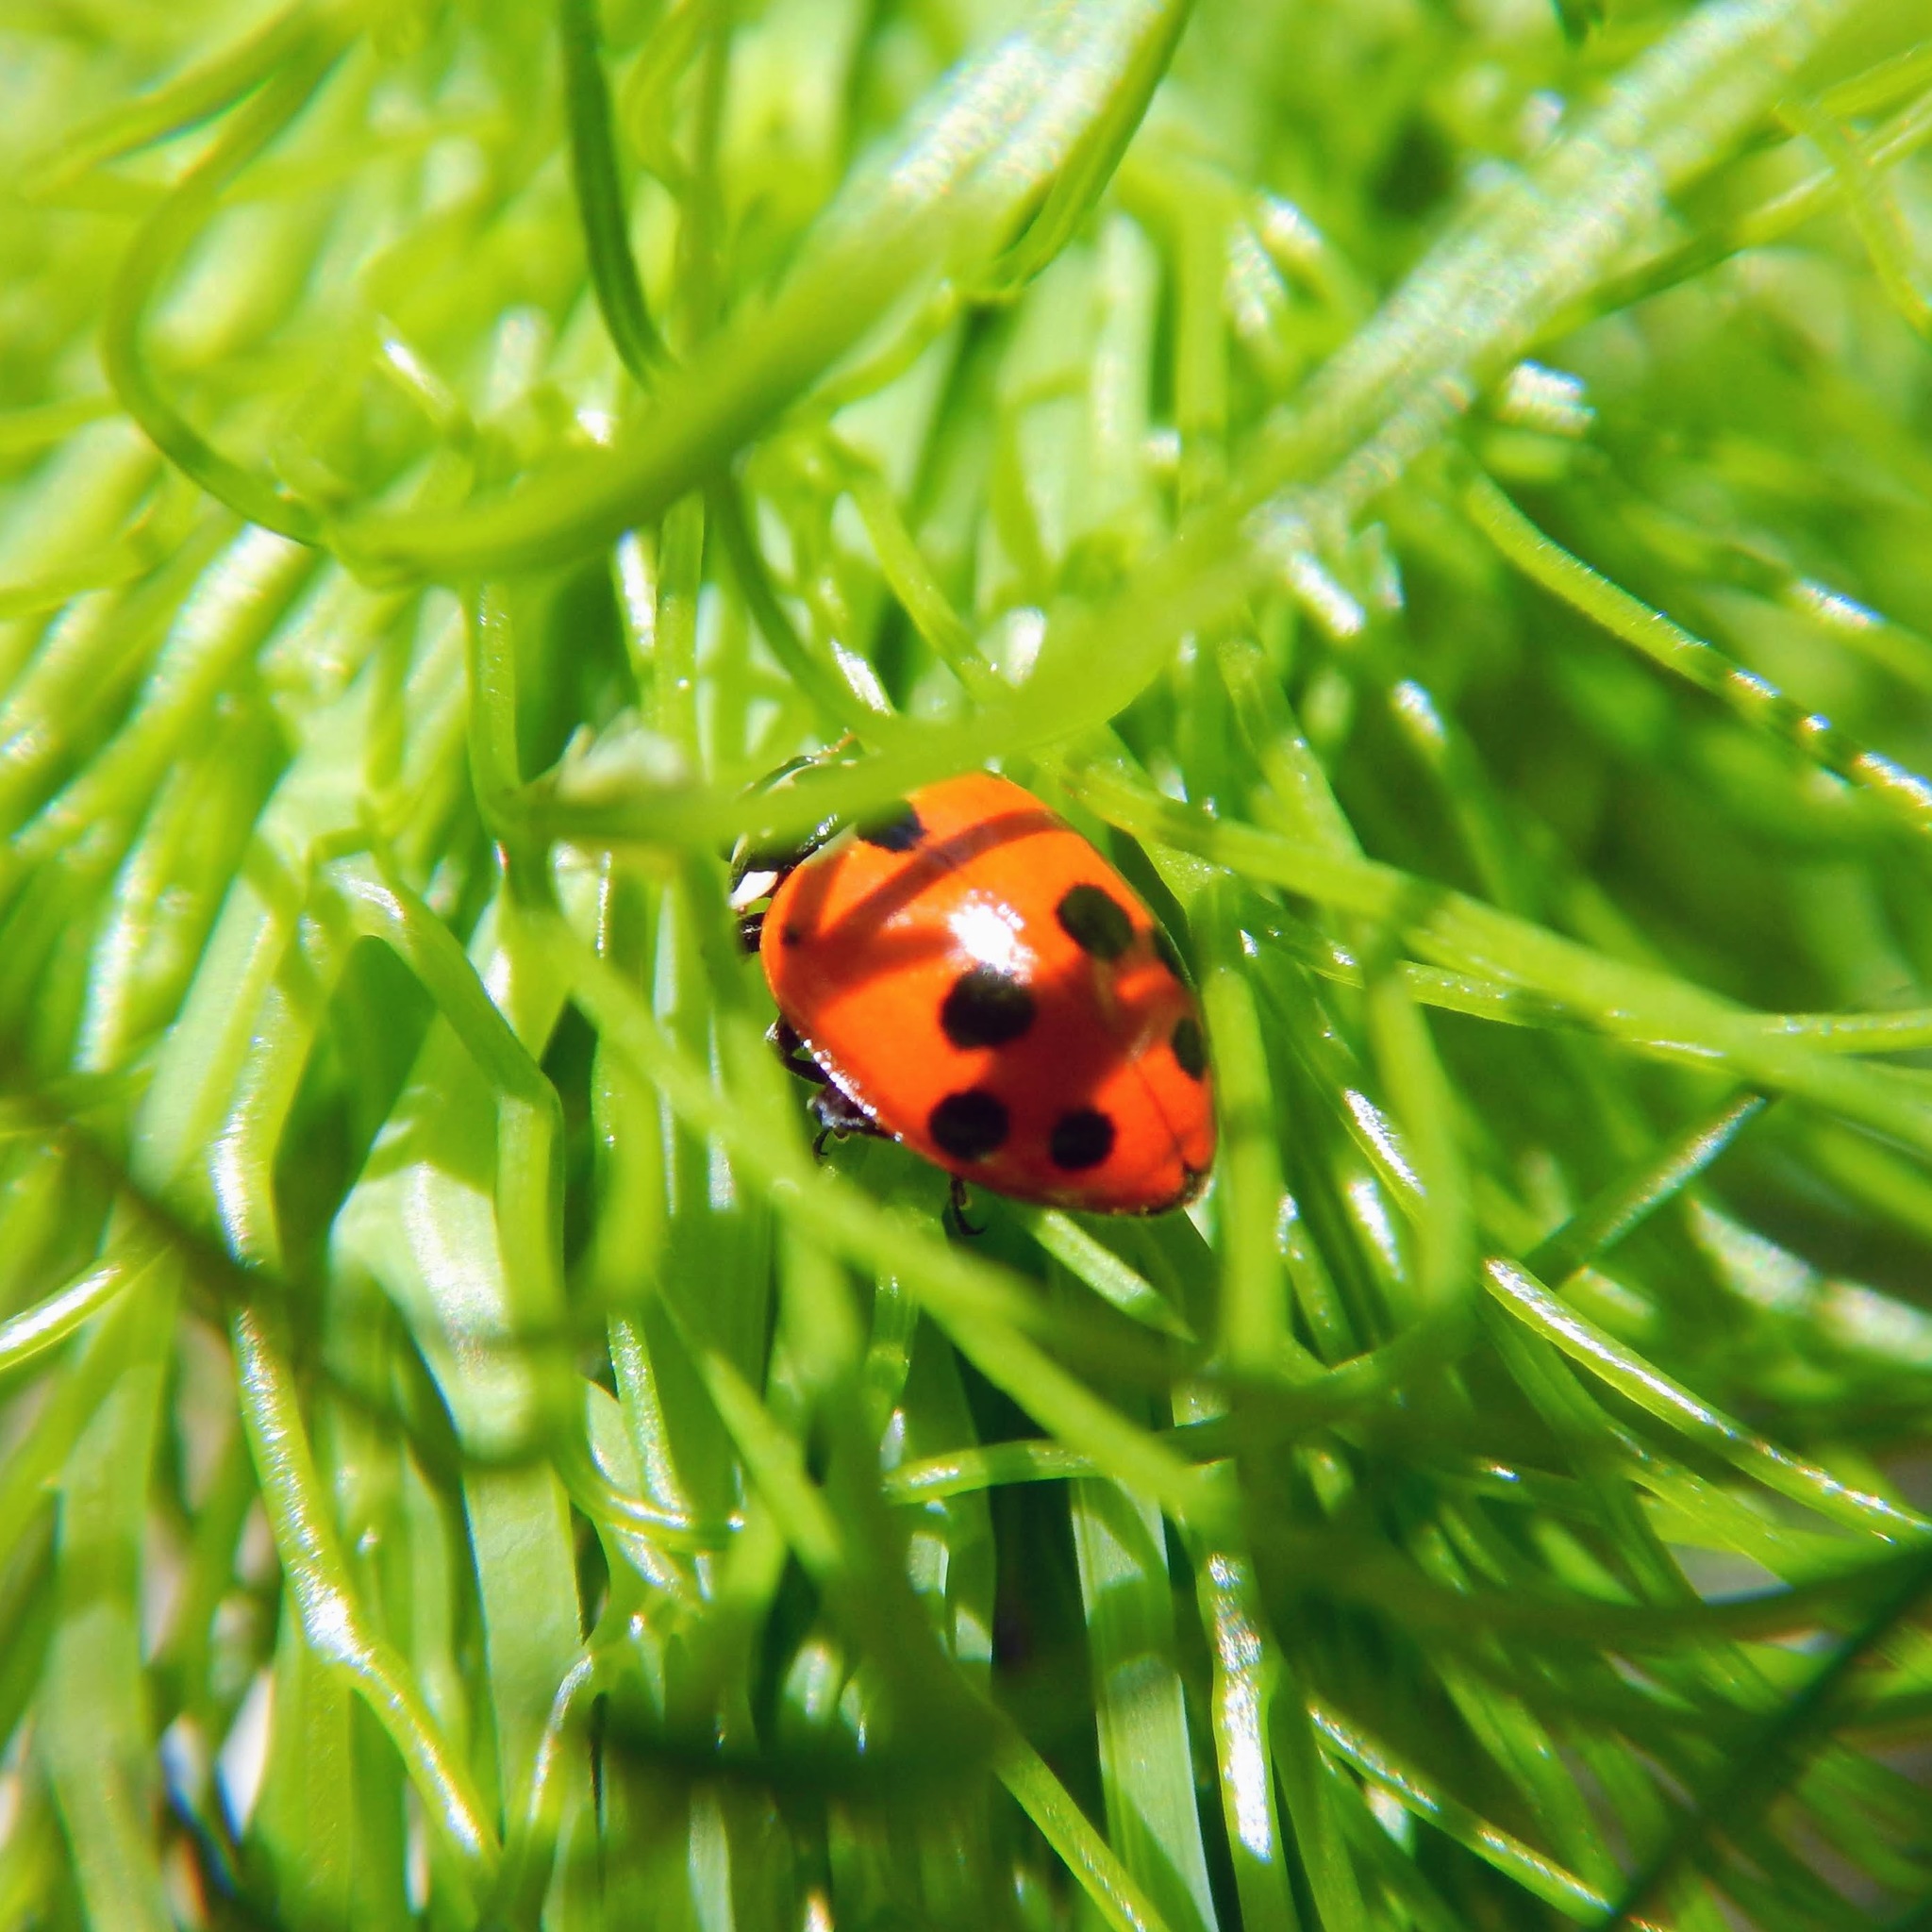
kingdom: Animalia
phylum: Arthropoda
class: Insecta
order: Coleoptera
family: Coccinellidae
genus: Hippodamia
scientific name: Hippodamia variegata
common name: Ladybird beetle
